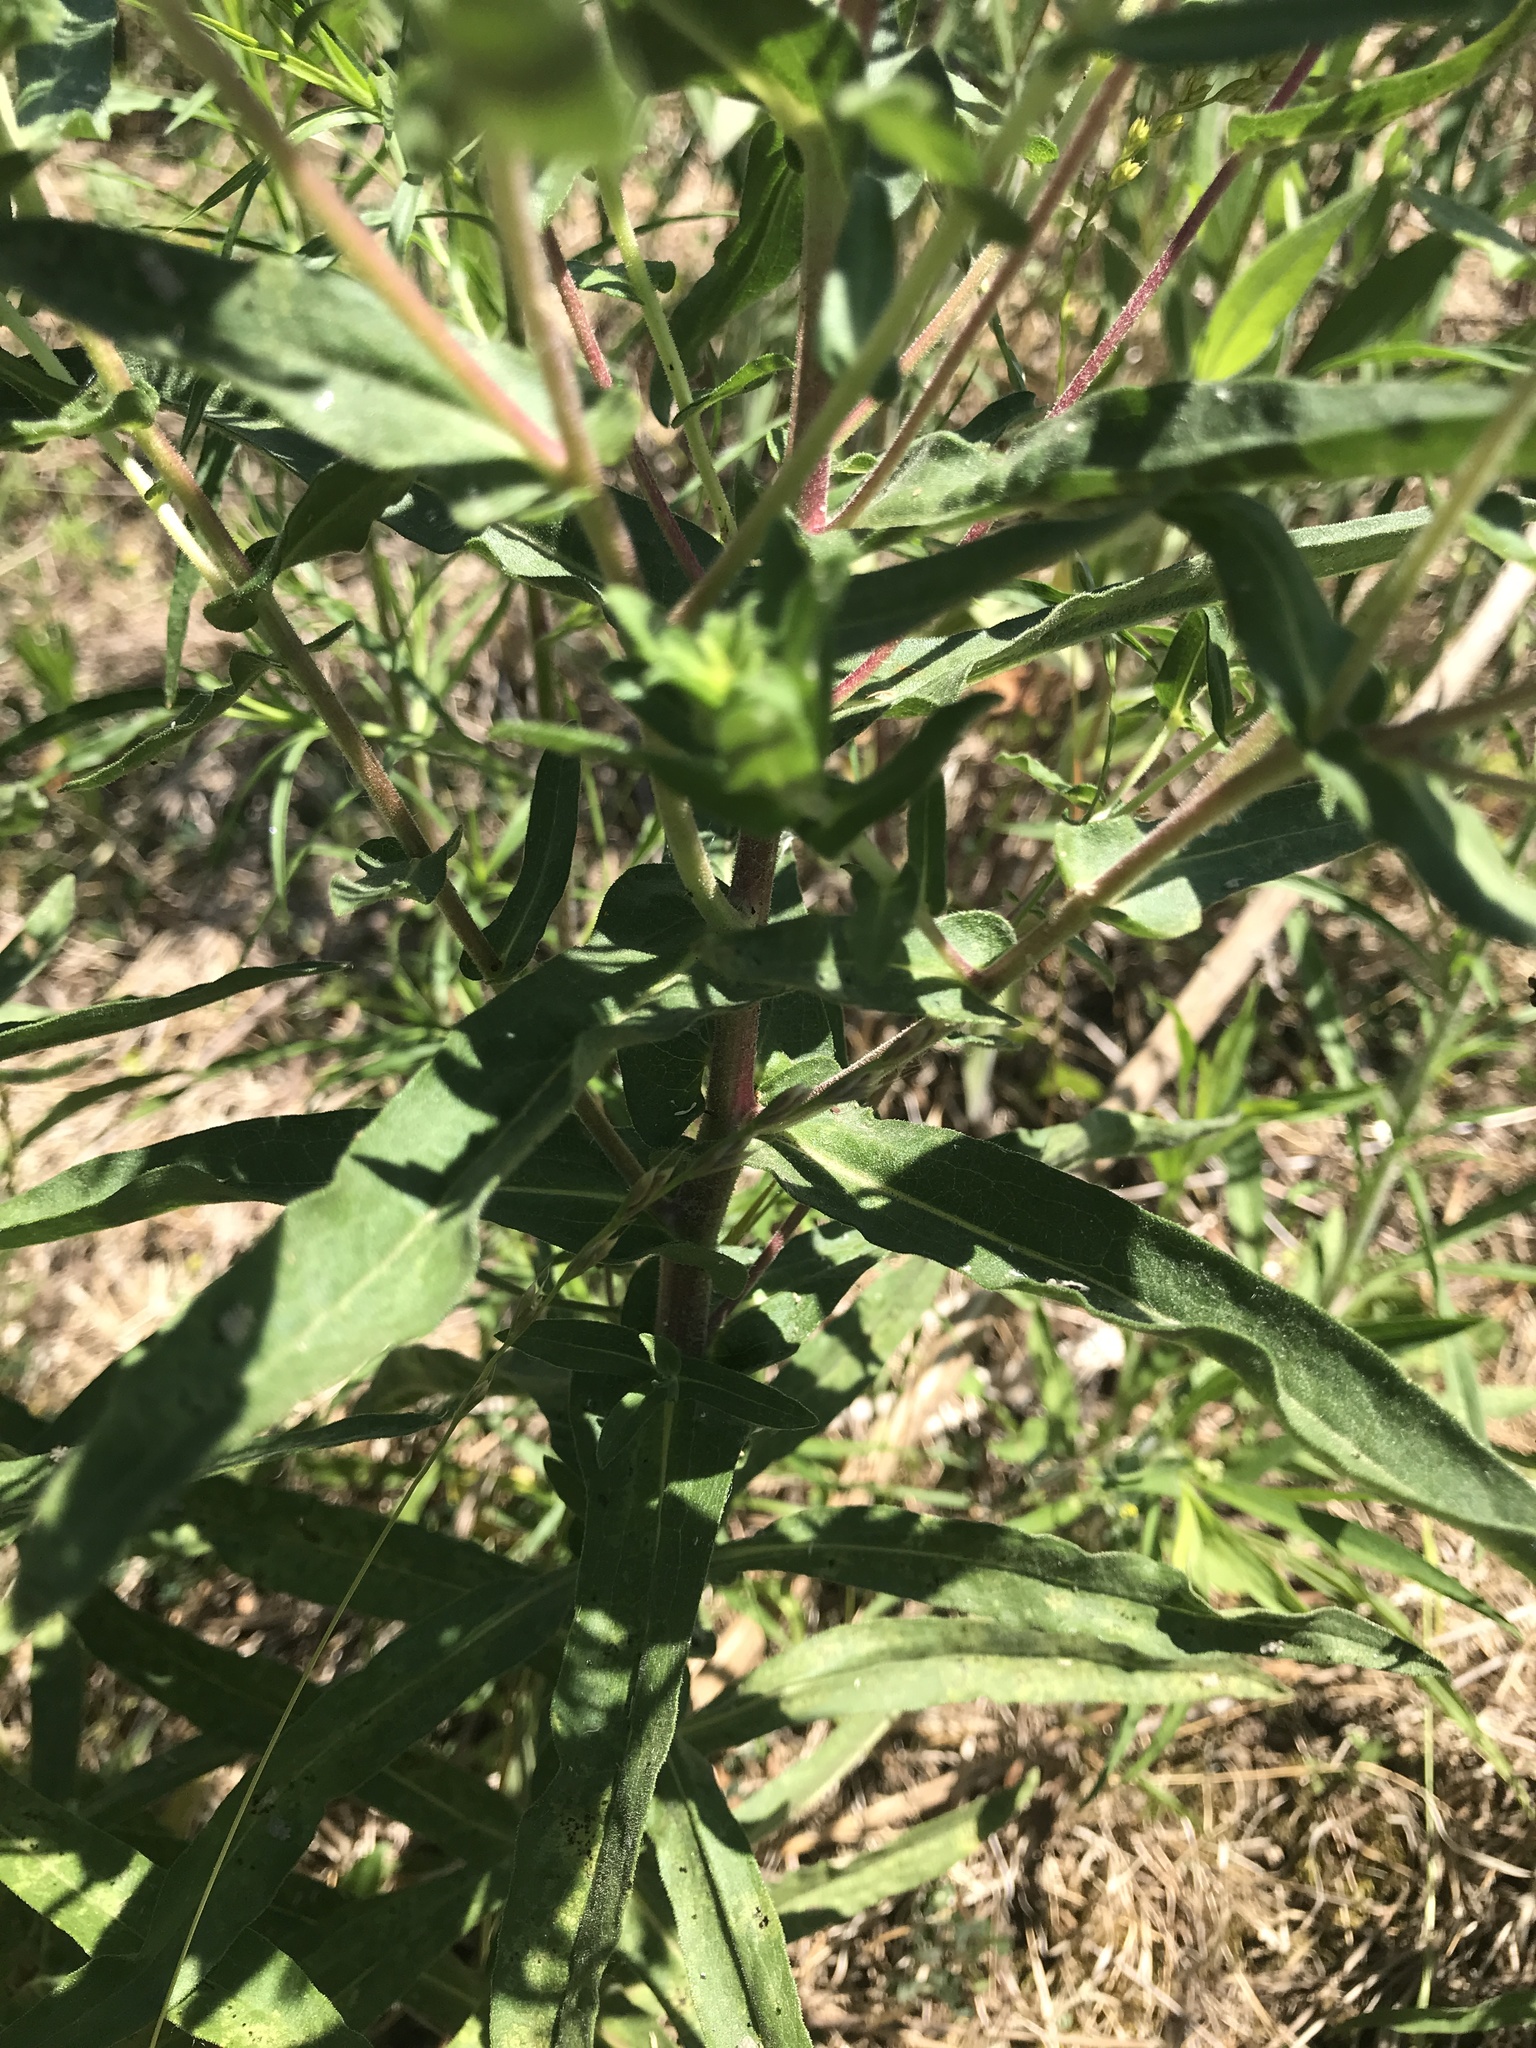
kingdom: Plantae
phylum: Tracheophyta
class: Magnoliopsida
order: Asterales
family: Asteraceae
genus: Symphyotrichum
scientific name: Symphyotrichum novae-angliae
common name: Michaelmas daisy
